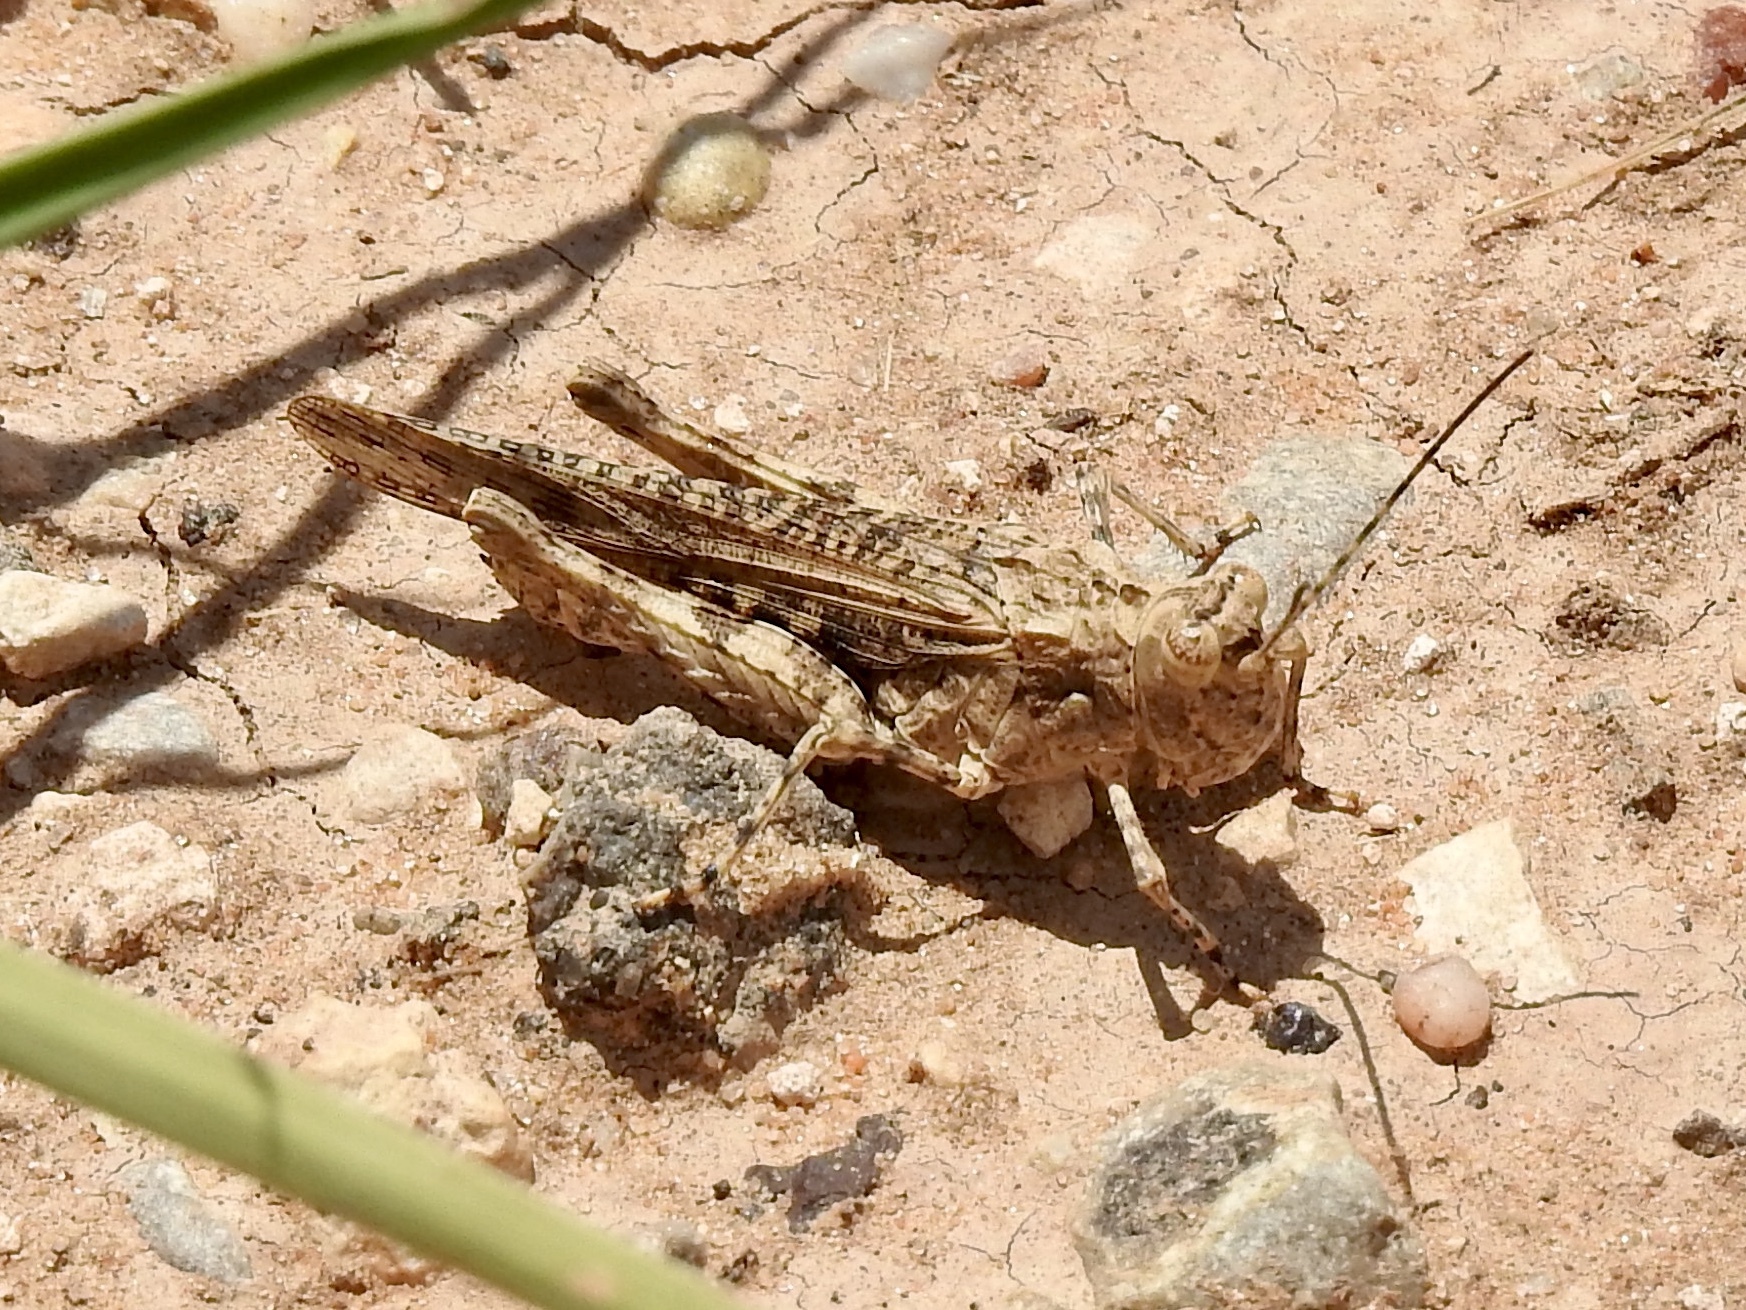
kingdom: Animalia
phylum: Arthropoda
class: Insecta
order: Orthoptera
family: Acrididae
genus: Derotmema
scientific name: Derotmema haydenii
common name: Hayden's grasshopper
